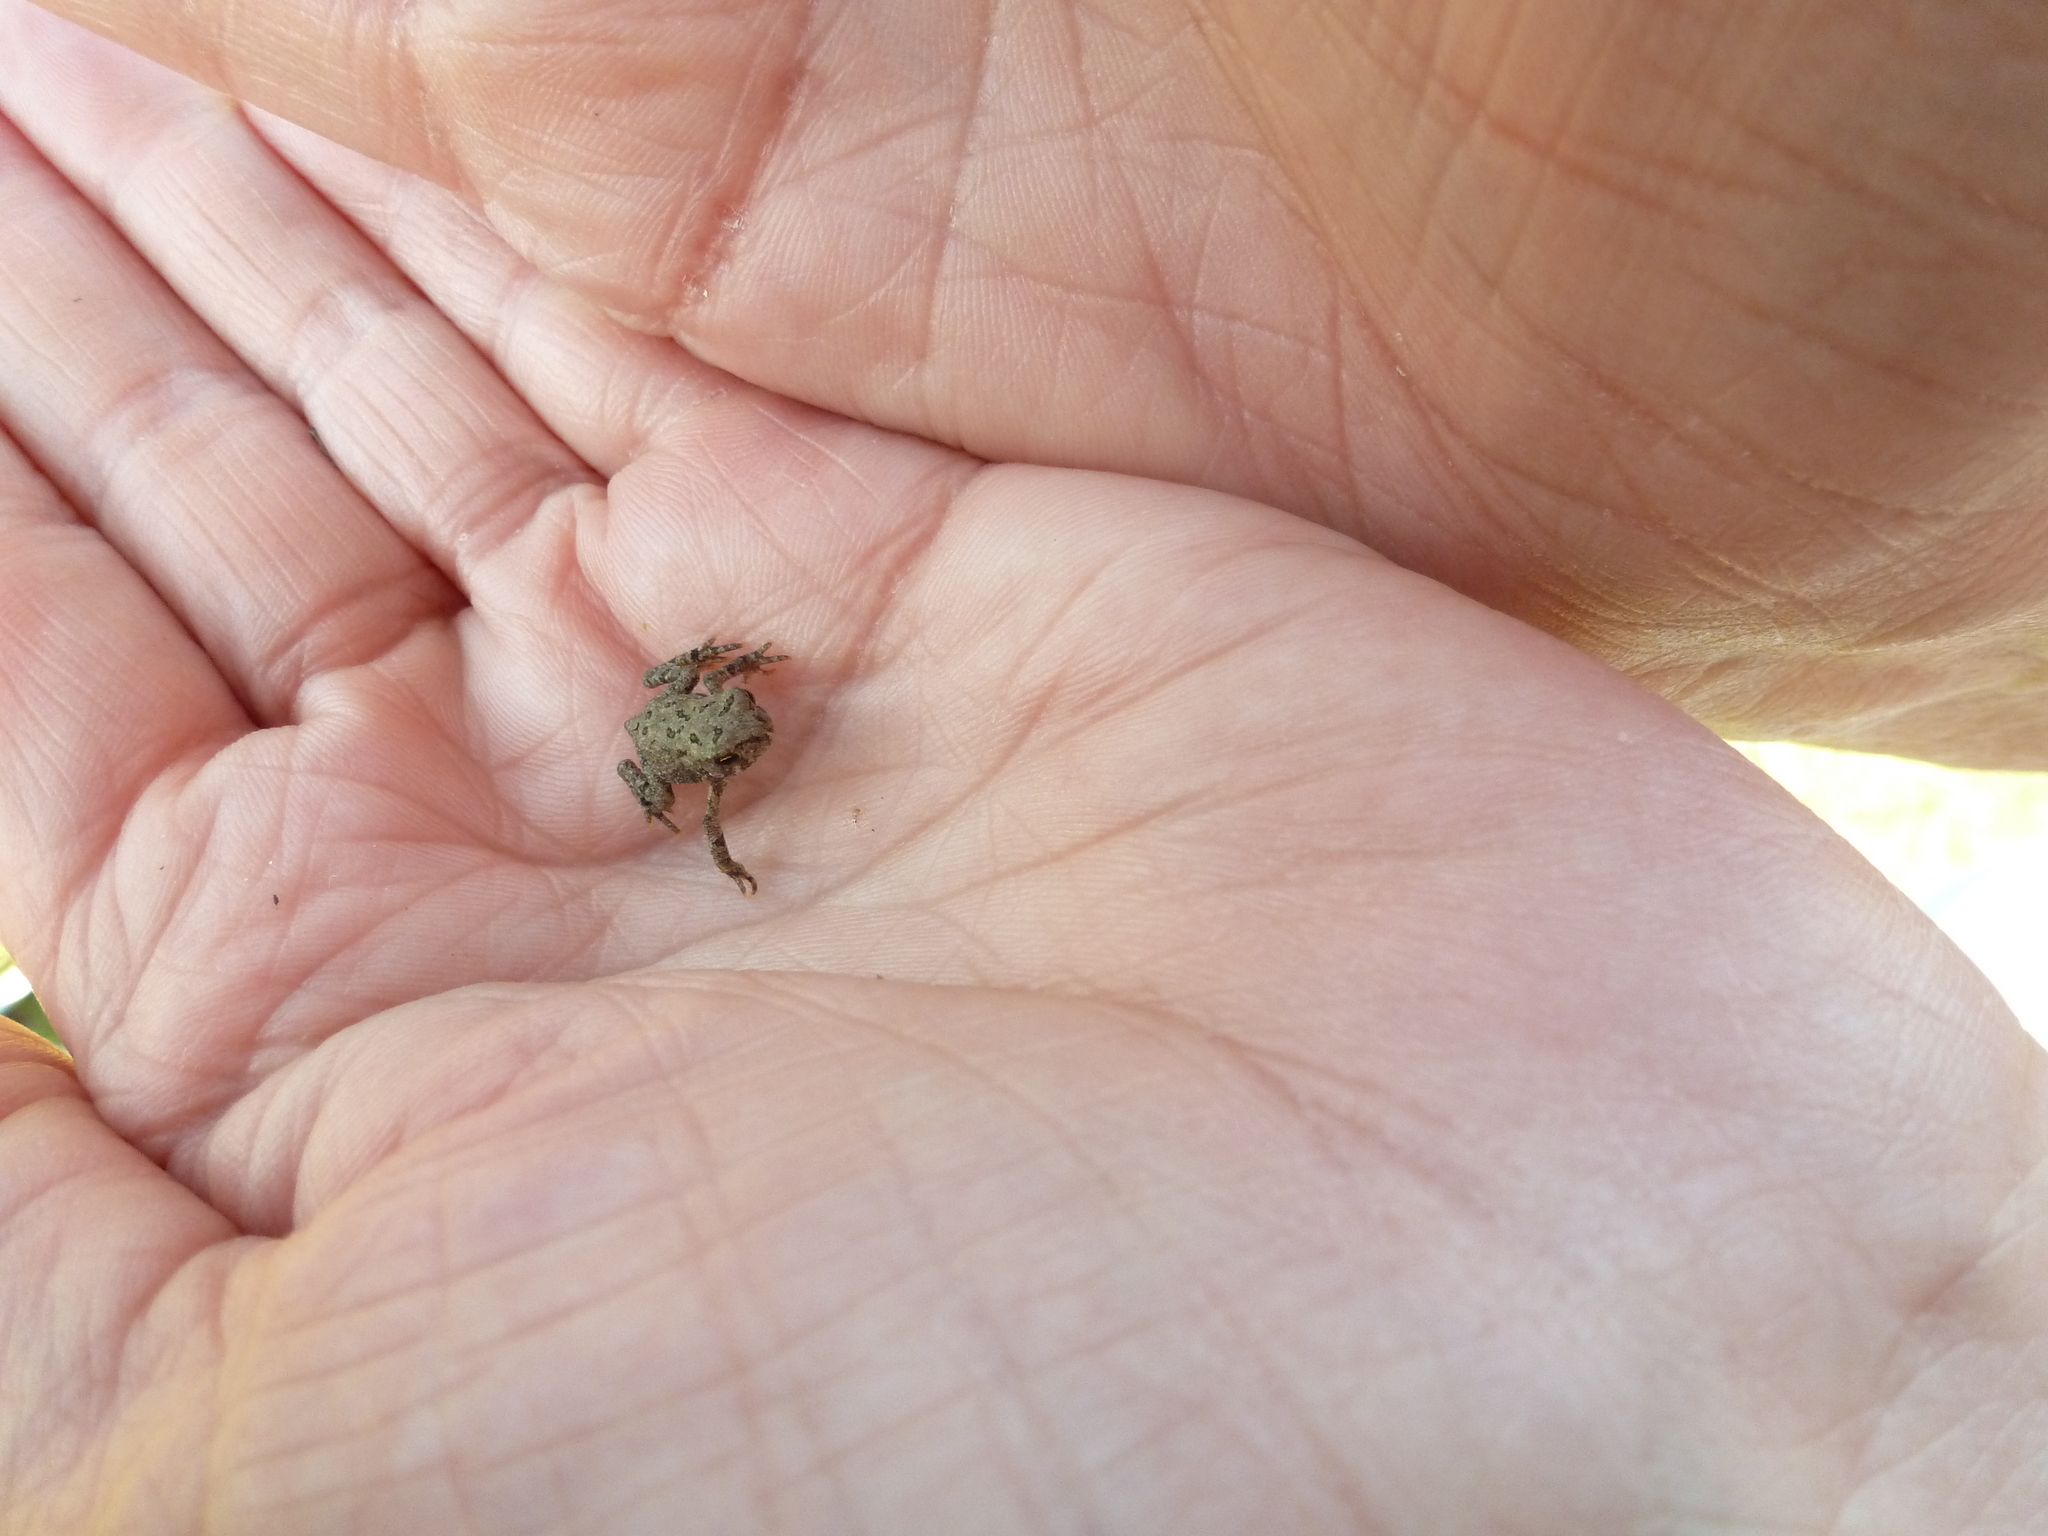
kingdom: Animalia
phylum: Chordata
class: Amphibia
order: Anura
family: Bufonidae
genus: Anaxyrus
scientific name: Anaxyrus americanus
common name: American toad
